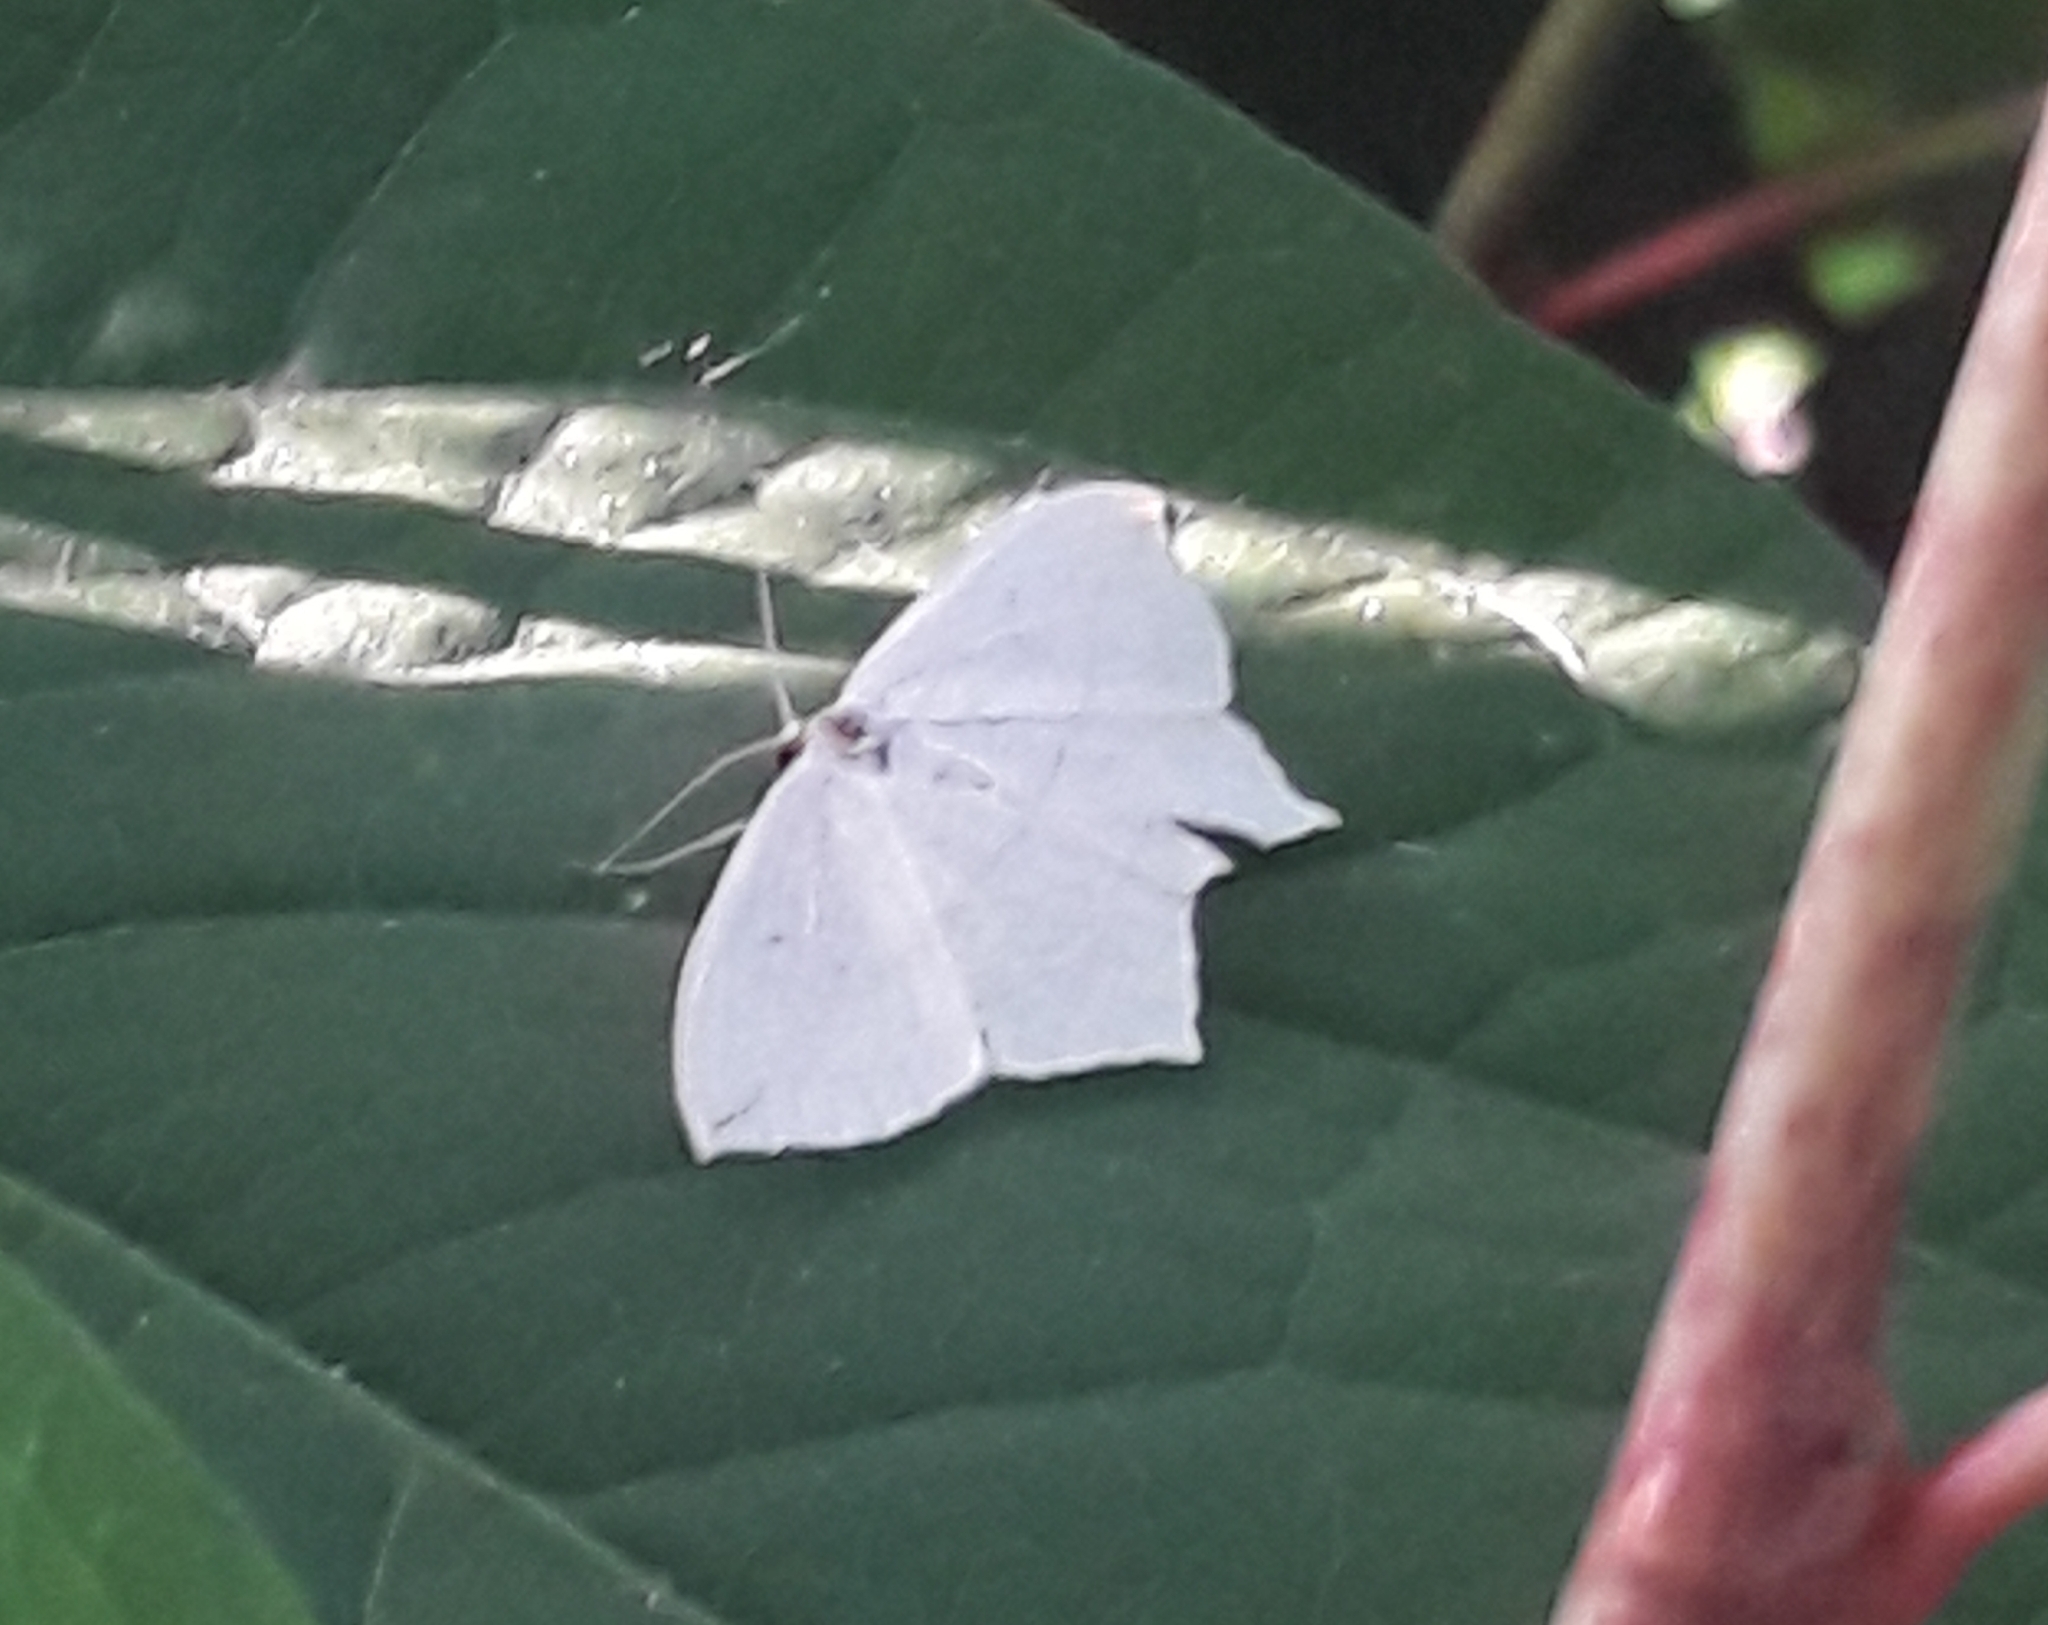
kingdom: Animalia
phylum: Arthropoda
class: Insecta
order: Lepidoptera
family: Geometridae
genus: Timandra
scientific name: Timandra comae
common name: Blood-vein
